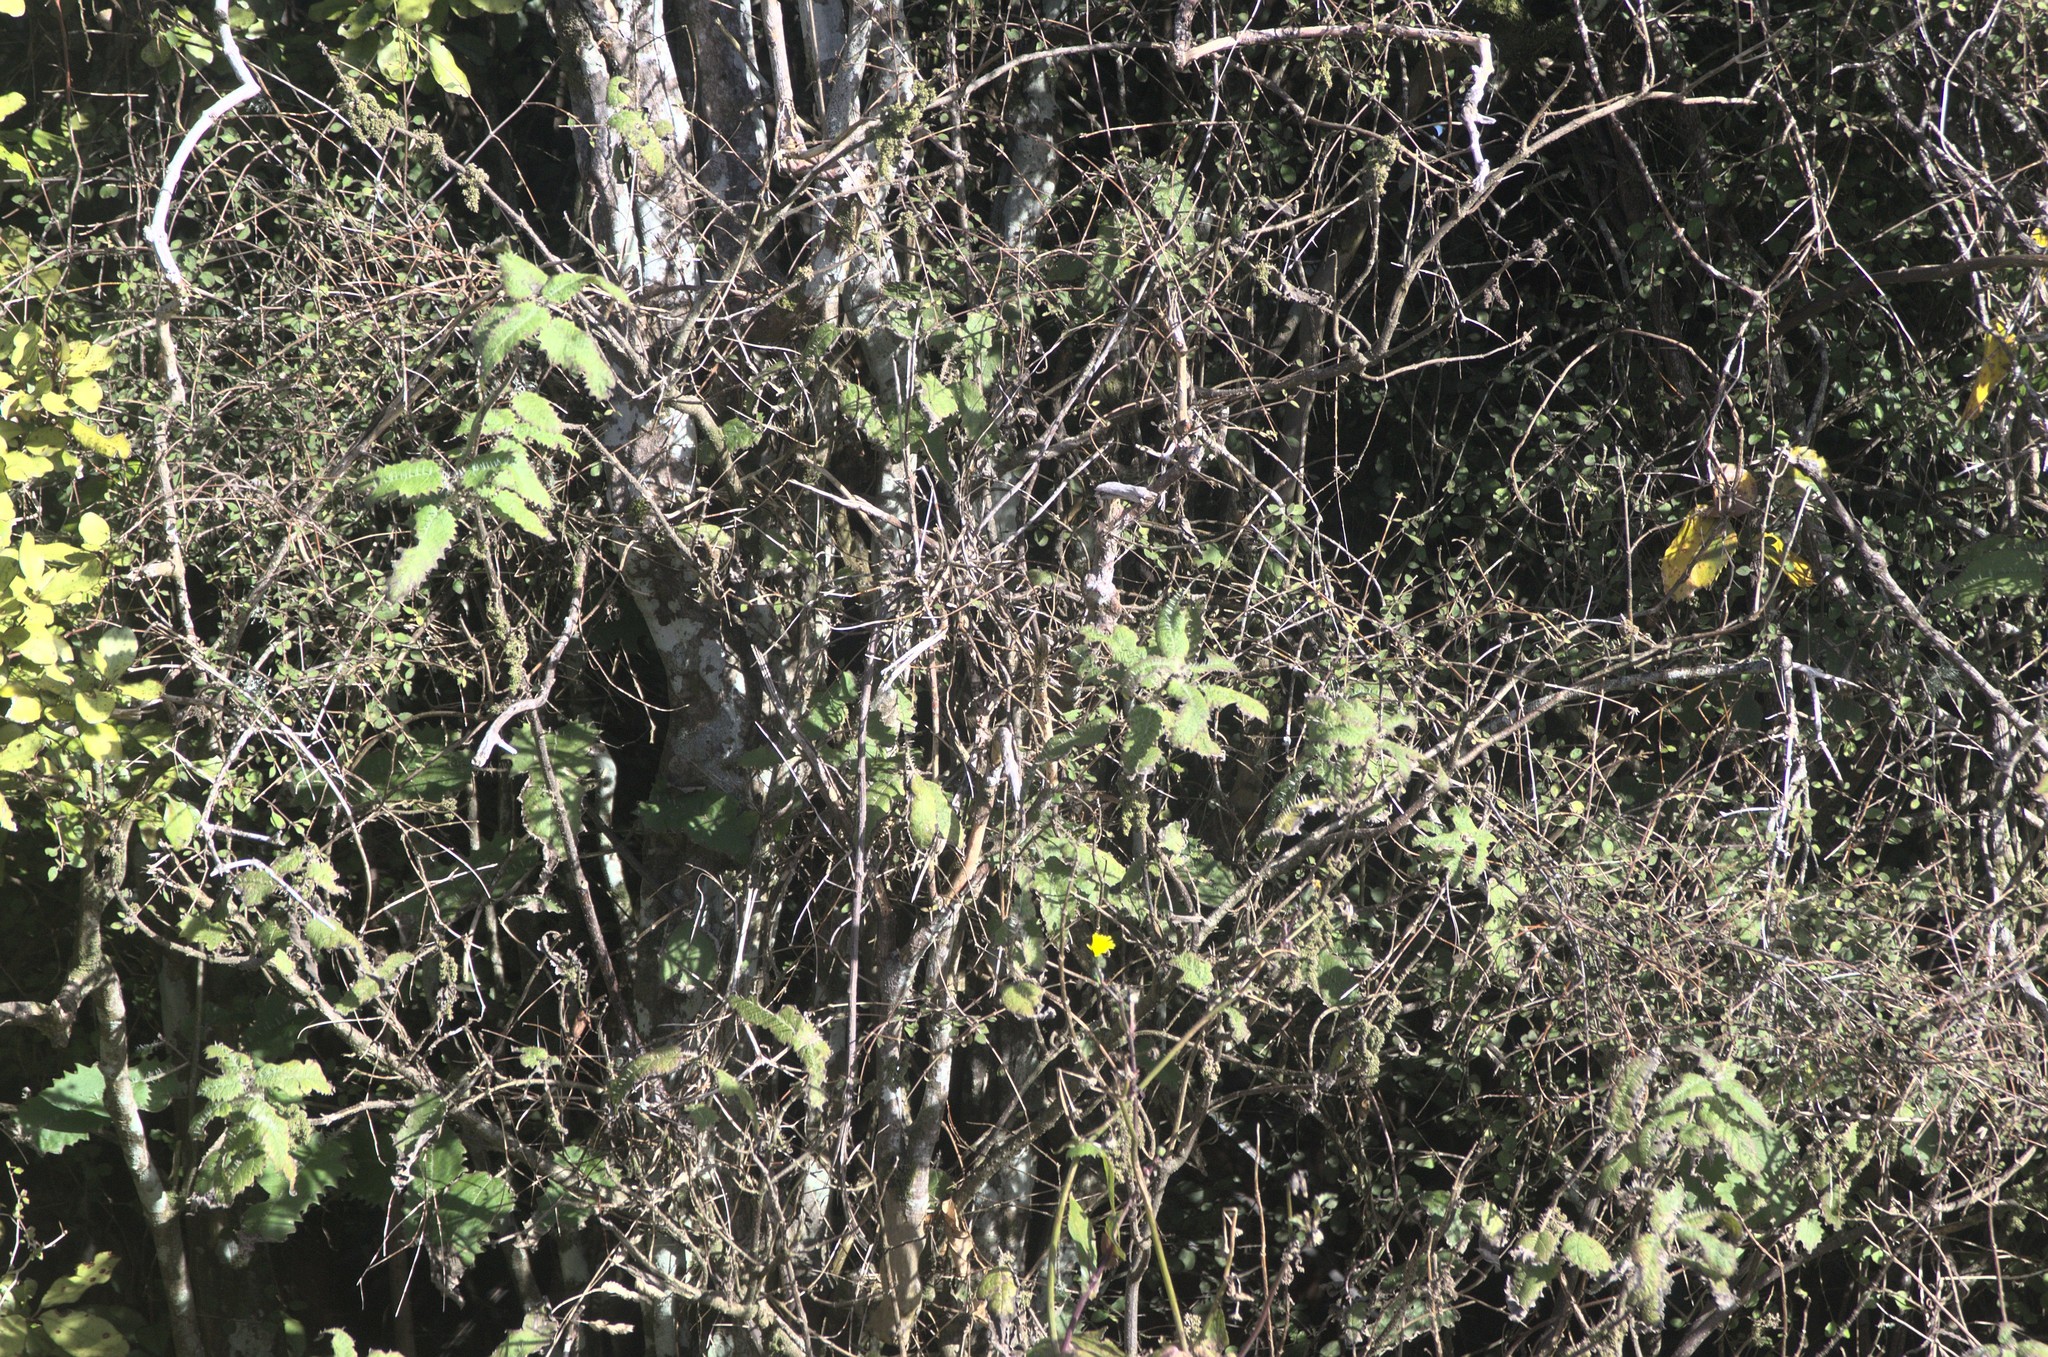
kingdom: Plantae
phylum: Tracheophyta
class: Magnoliopsida
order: Rosales
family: Urticaceae
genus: Urtica
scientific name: Urtica ferox
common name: Tree nettle
